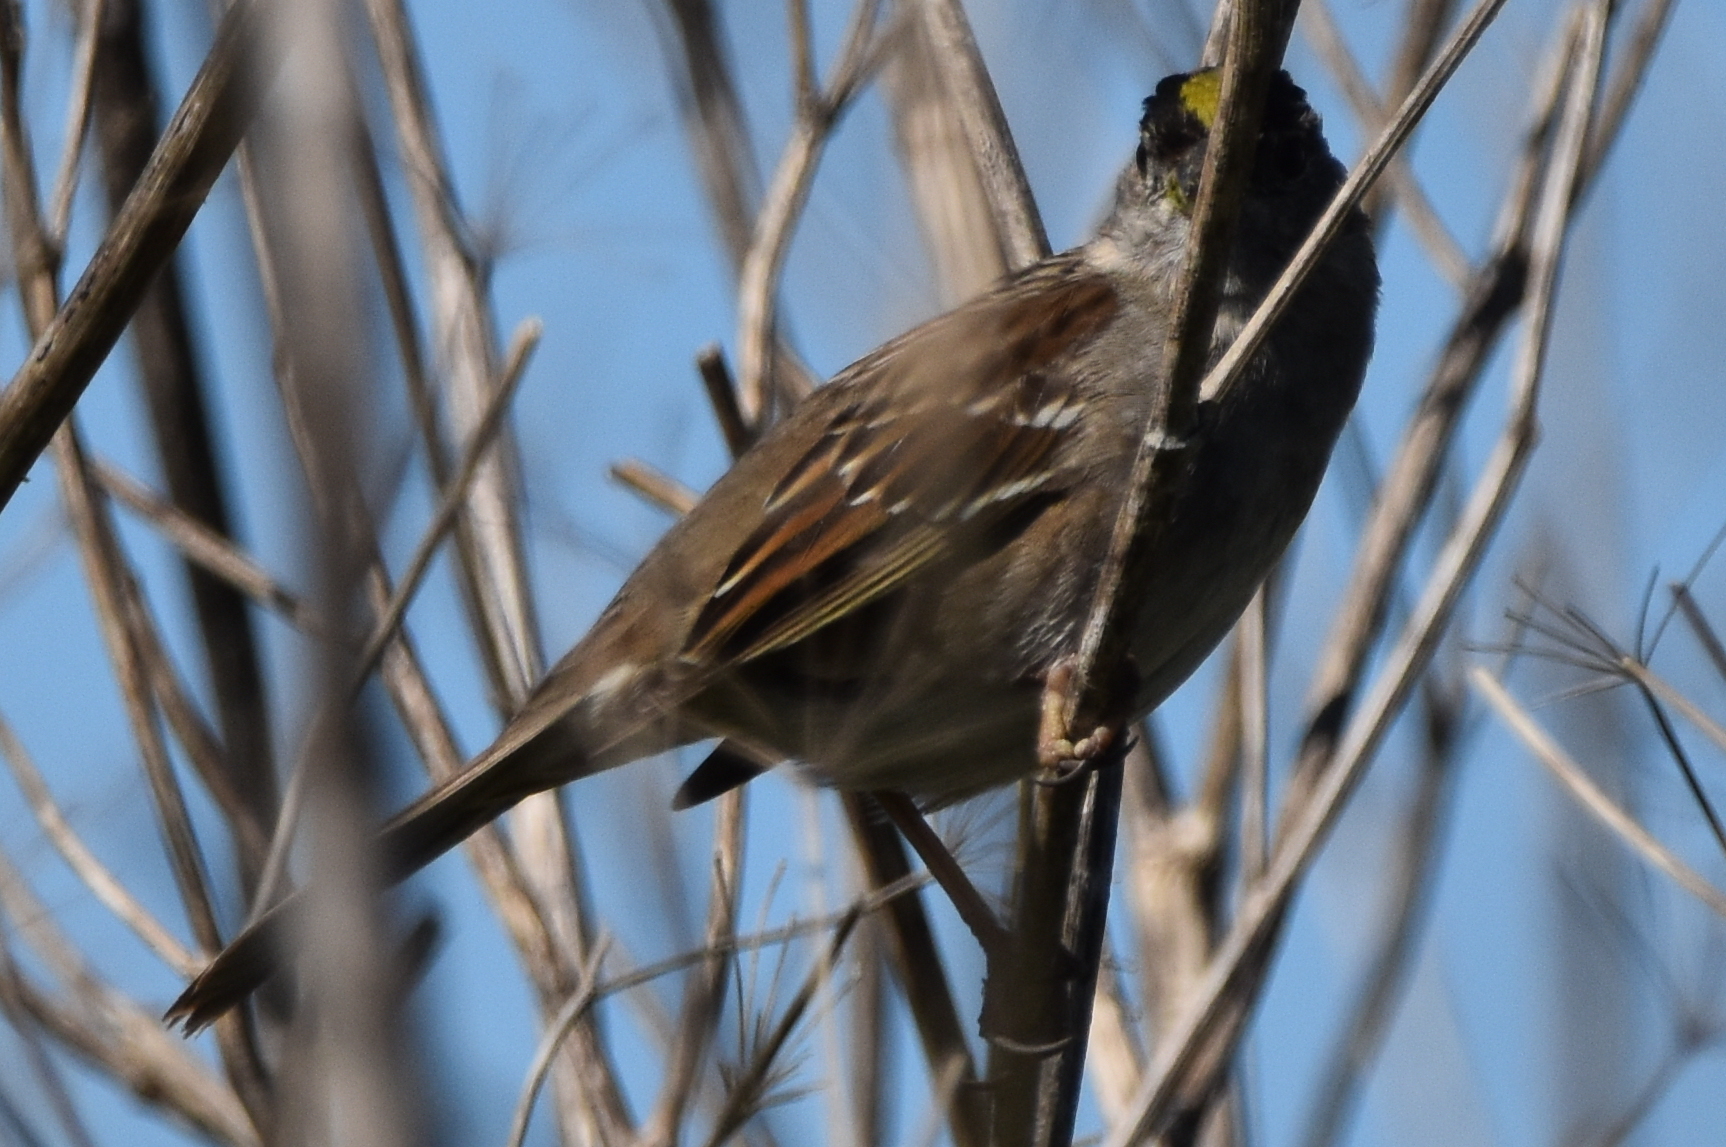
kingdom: Animalia
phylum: Chordata
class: Aves
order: Passeriformes
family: Passerellidae
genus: Zonotrichia
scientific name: Zonotrichia atricapilla
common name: Golden-crowned sparrow
